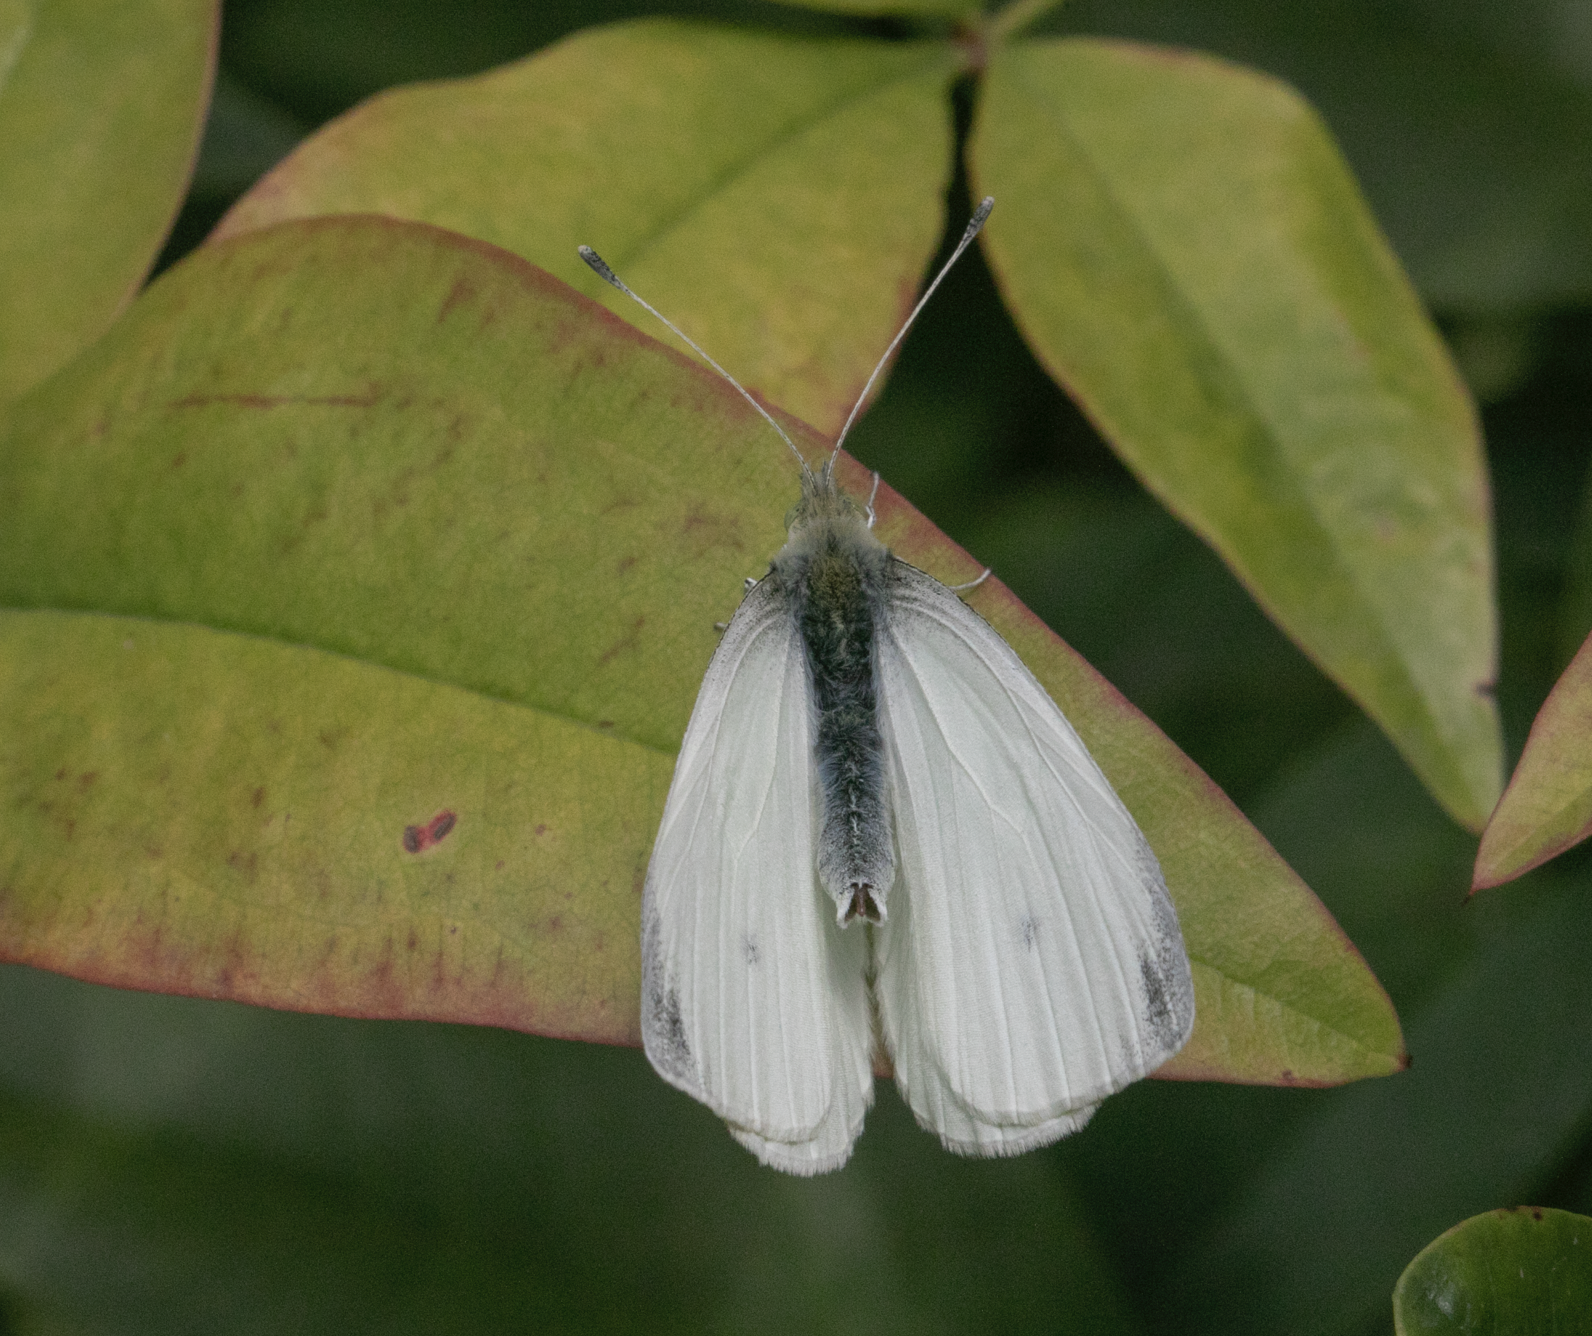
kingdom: Animalia
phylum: Arthropoda
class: Insecta
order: Lepidoptera
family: Pieridae
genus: Pieris
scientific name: Pieris rapae
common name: Small white
